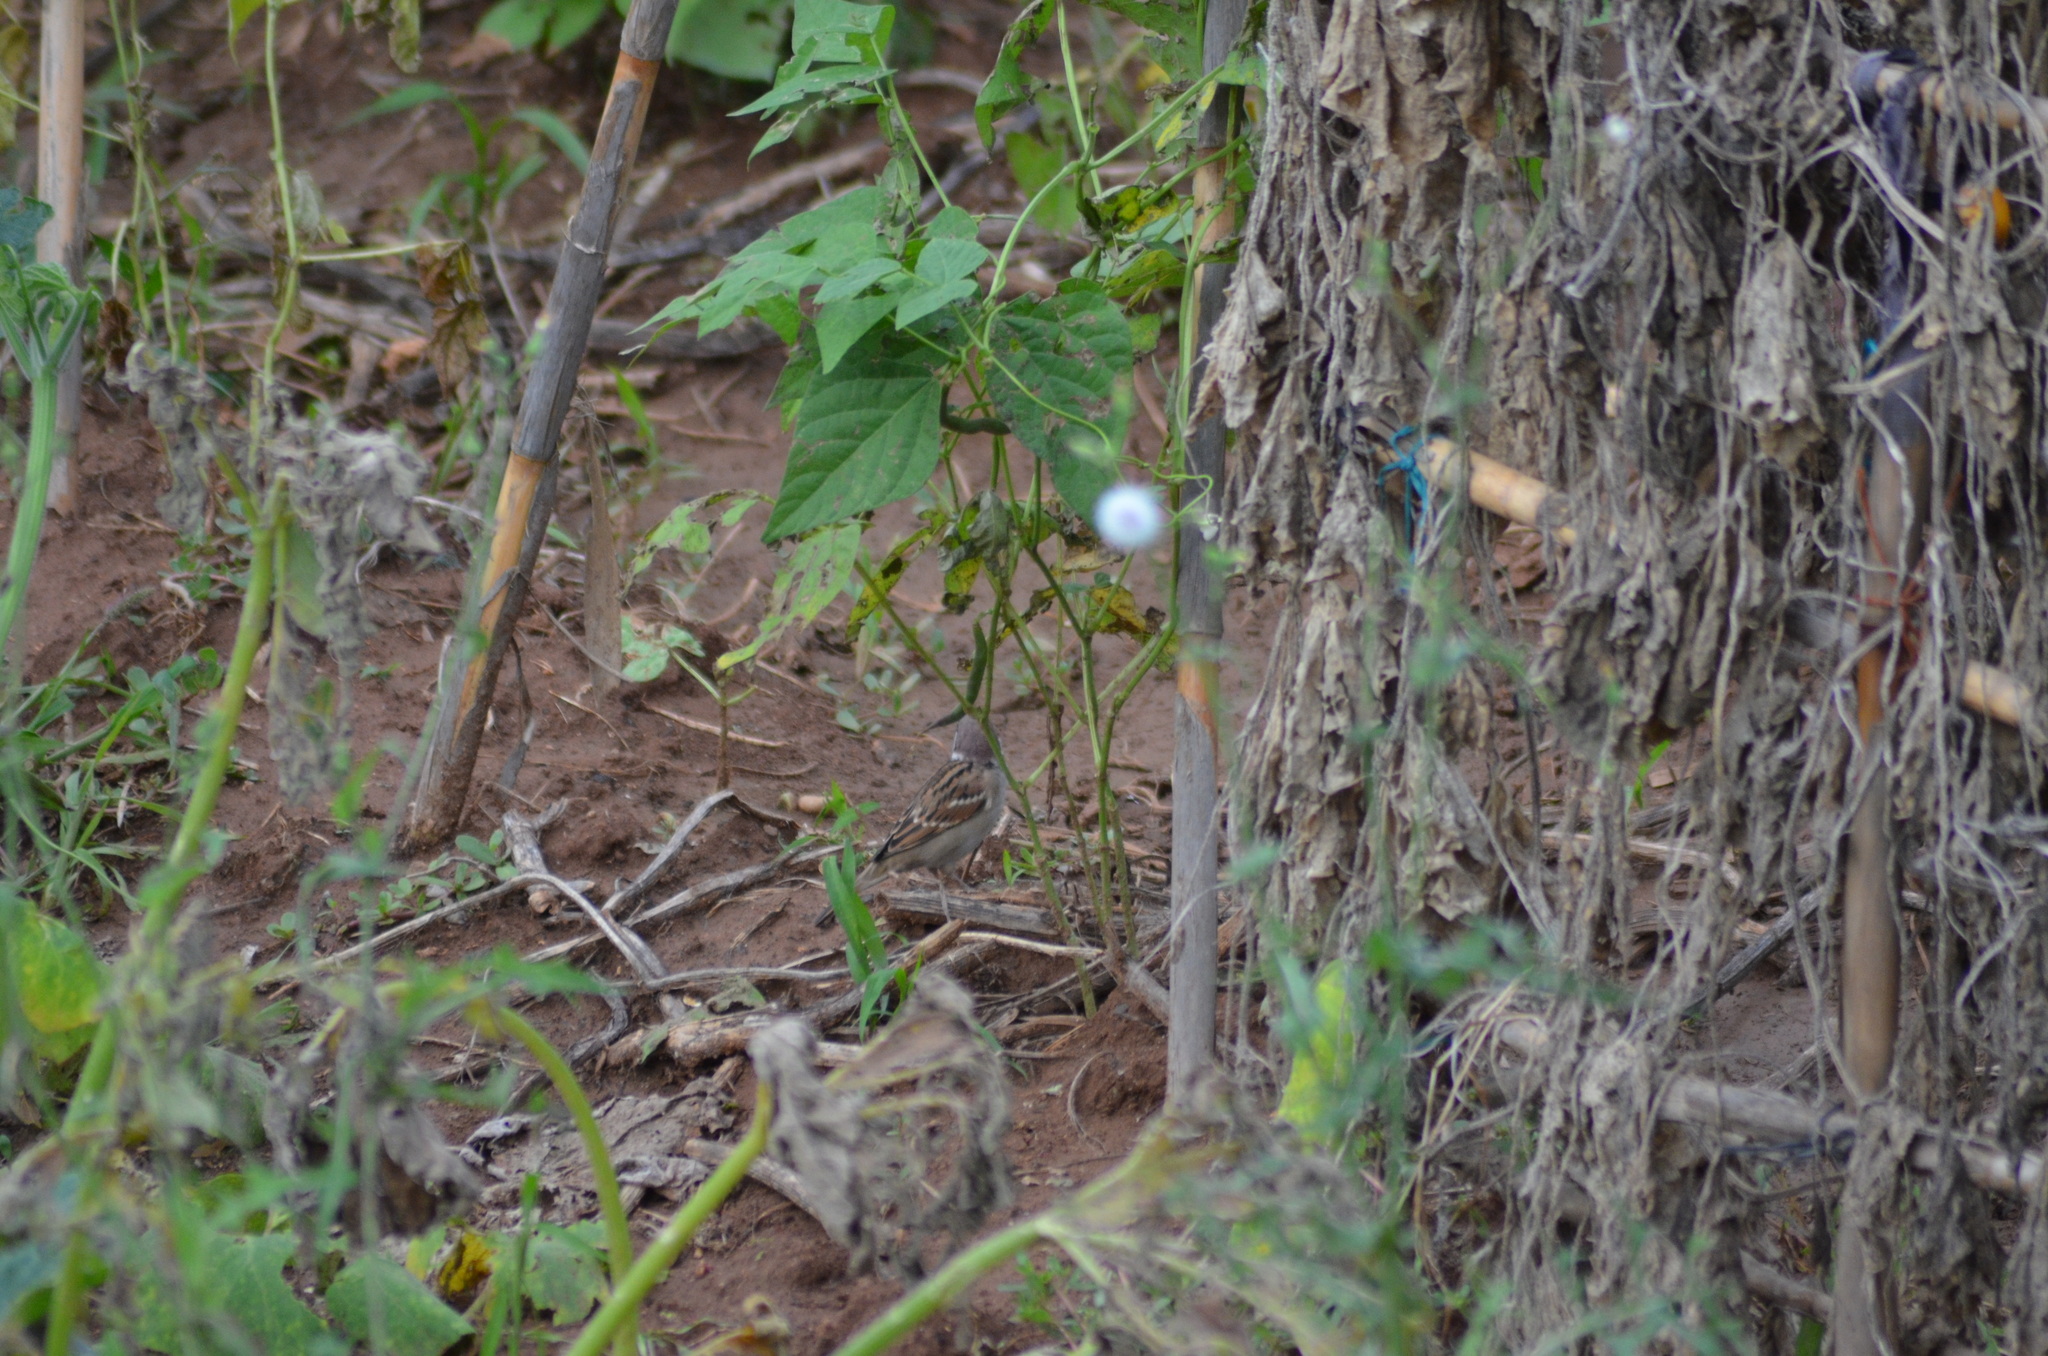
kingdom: Animalia
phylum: Chordata
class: Aves
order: Passeriformes
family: Passeridae
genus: Passer
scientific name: Passer montanus
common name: Eurasian tree sparrow
